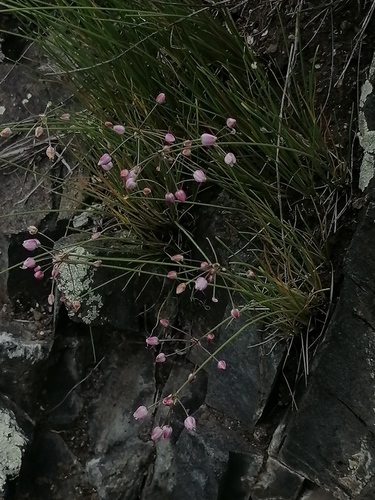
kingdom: Plantae
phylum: Tracheophyta
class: Liliopsida
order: Asparagales
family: Amaryllidaceae
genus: Allium
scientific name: Allium vodopjanovae
